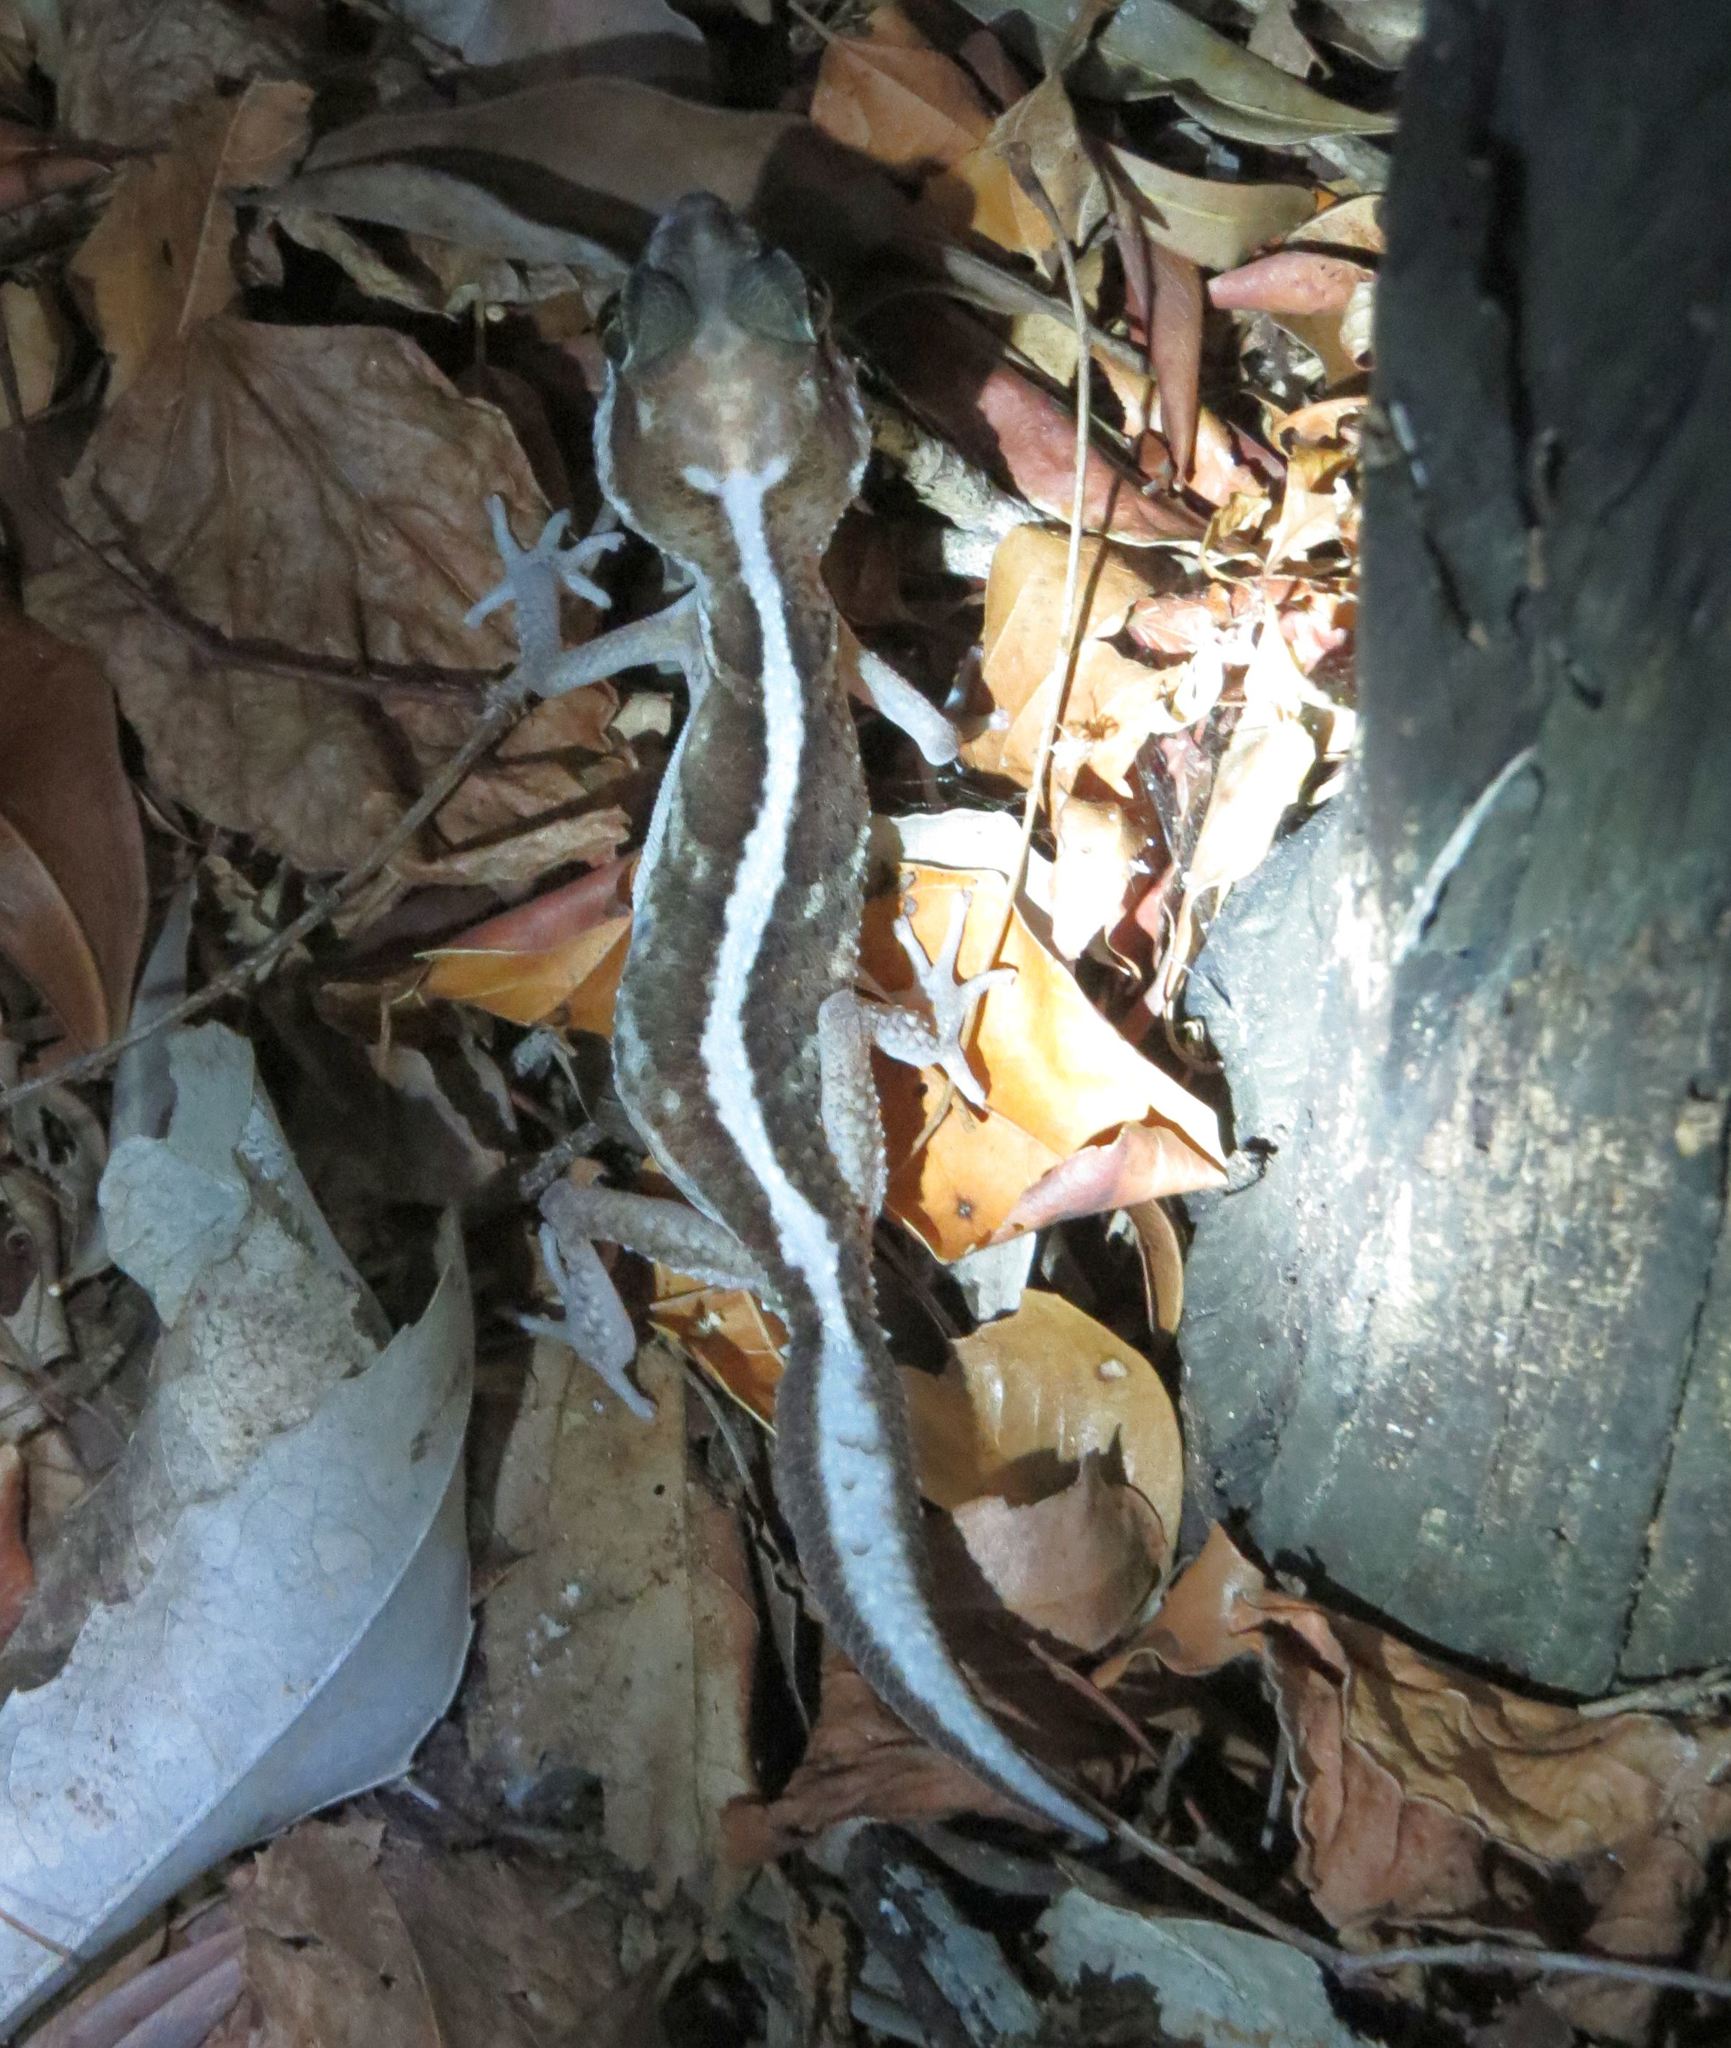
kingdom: Animalia
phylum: Chordata
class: Squamata
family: Gekkonidae
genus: Paroedura
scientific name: Paroedura picta
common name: Panther gecko
